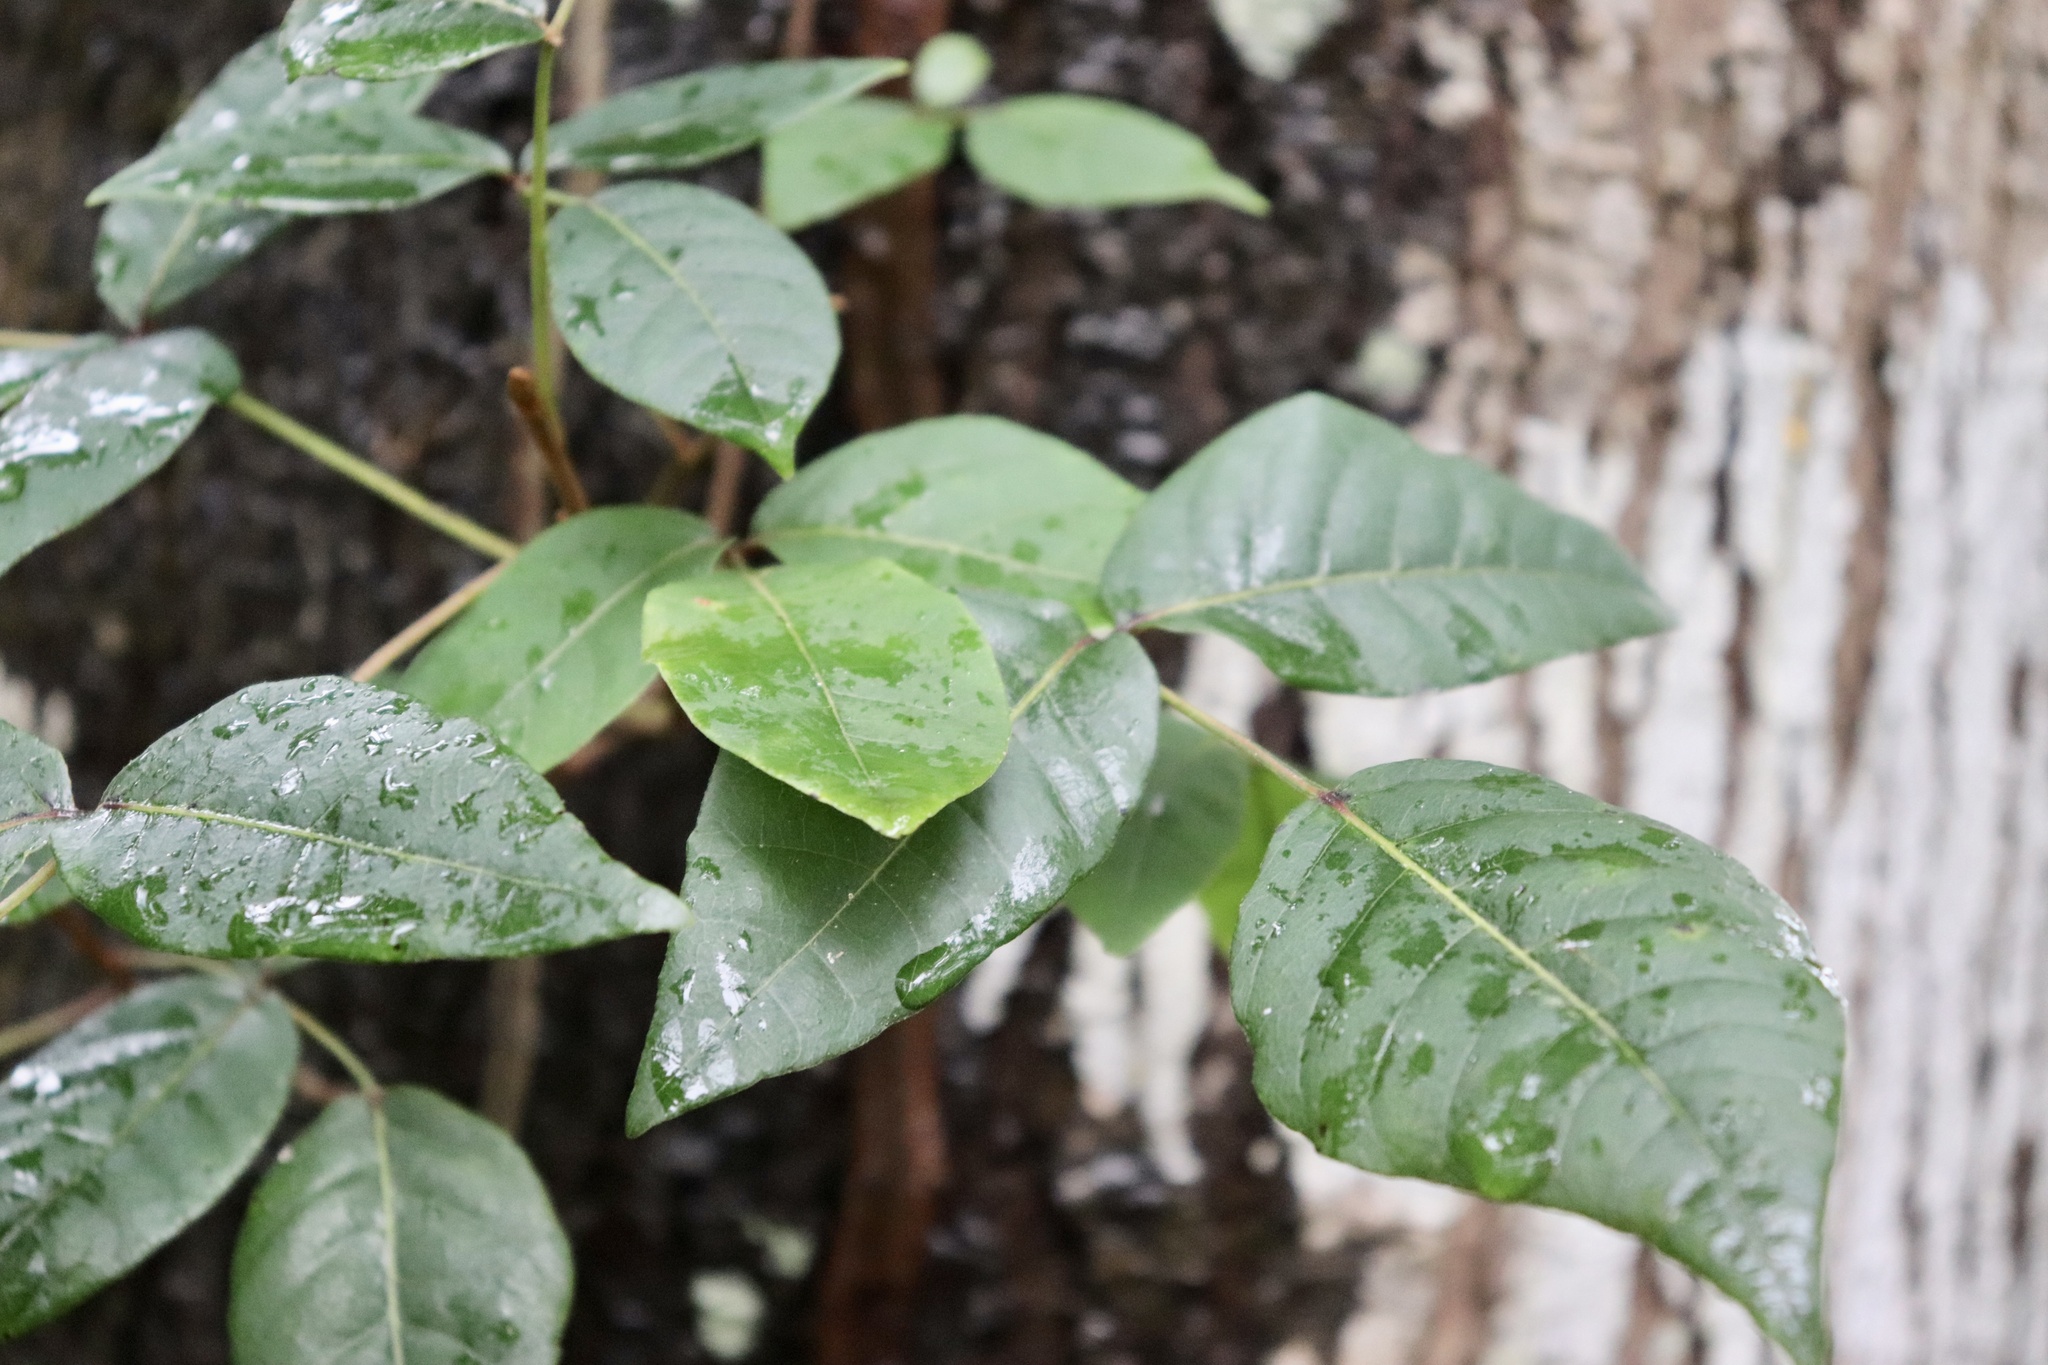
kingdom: Plantae
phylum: Tracheophyta
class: Magnoliopsida
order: Sapindales
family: Anacardiaceae
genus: Toxicodendron
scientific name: Toxicodendron radicans
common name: Poison ivy
